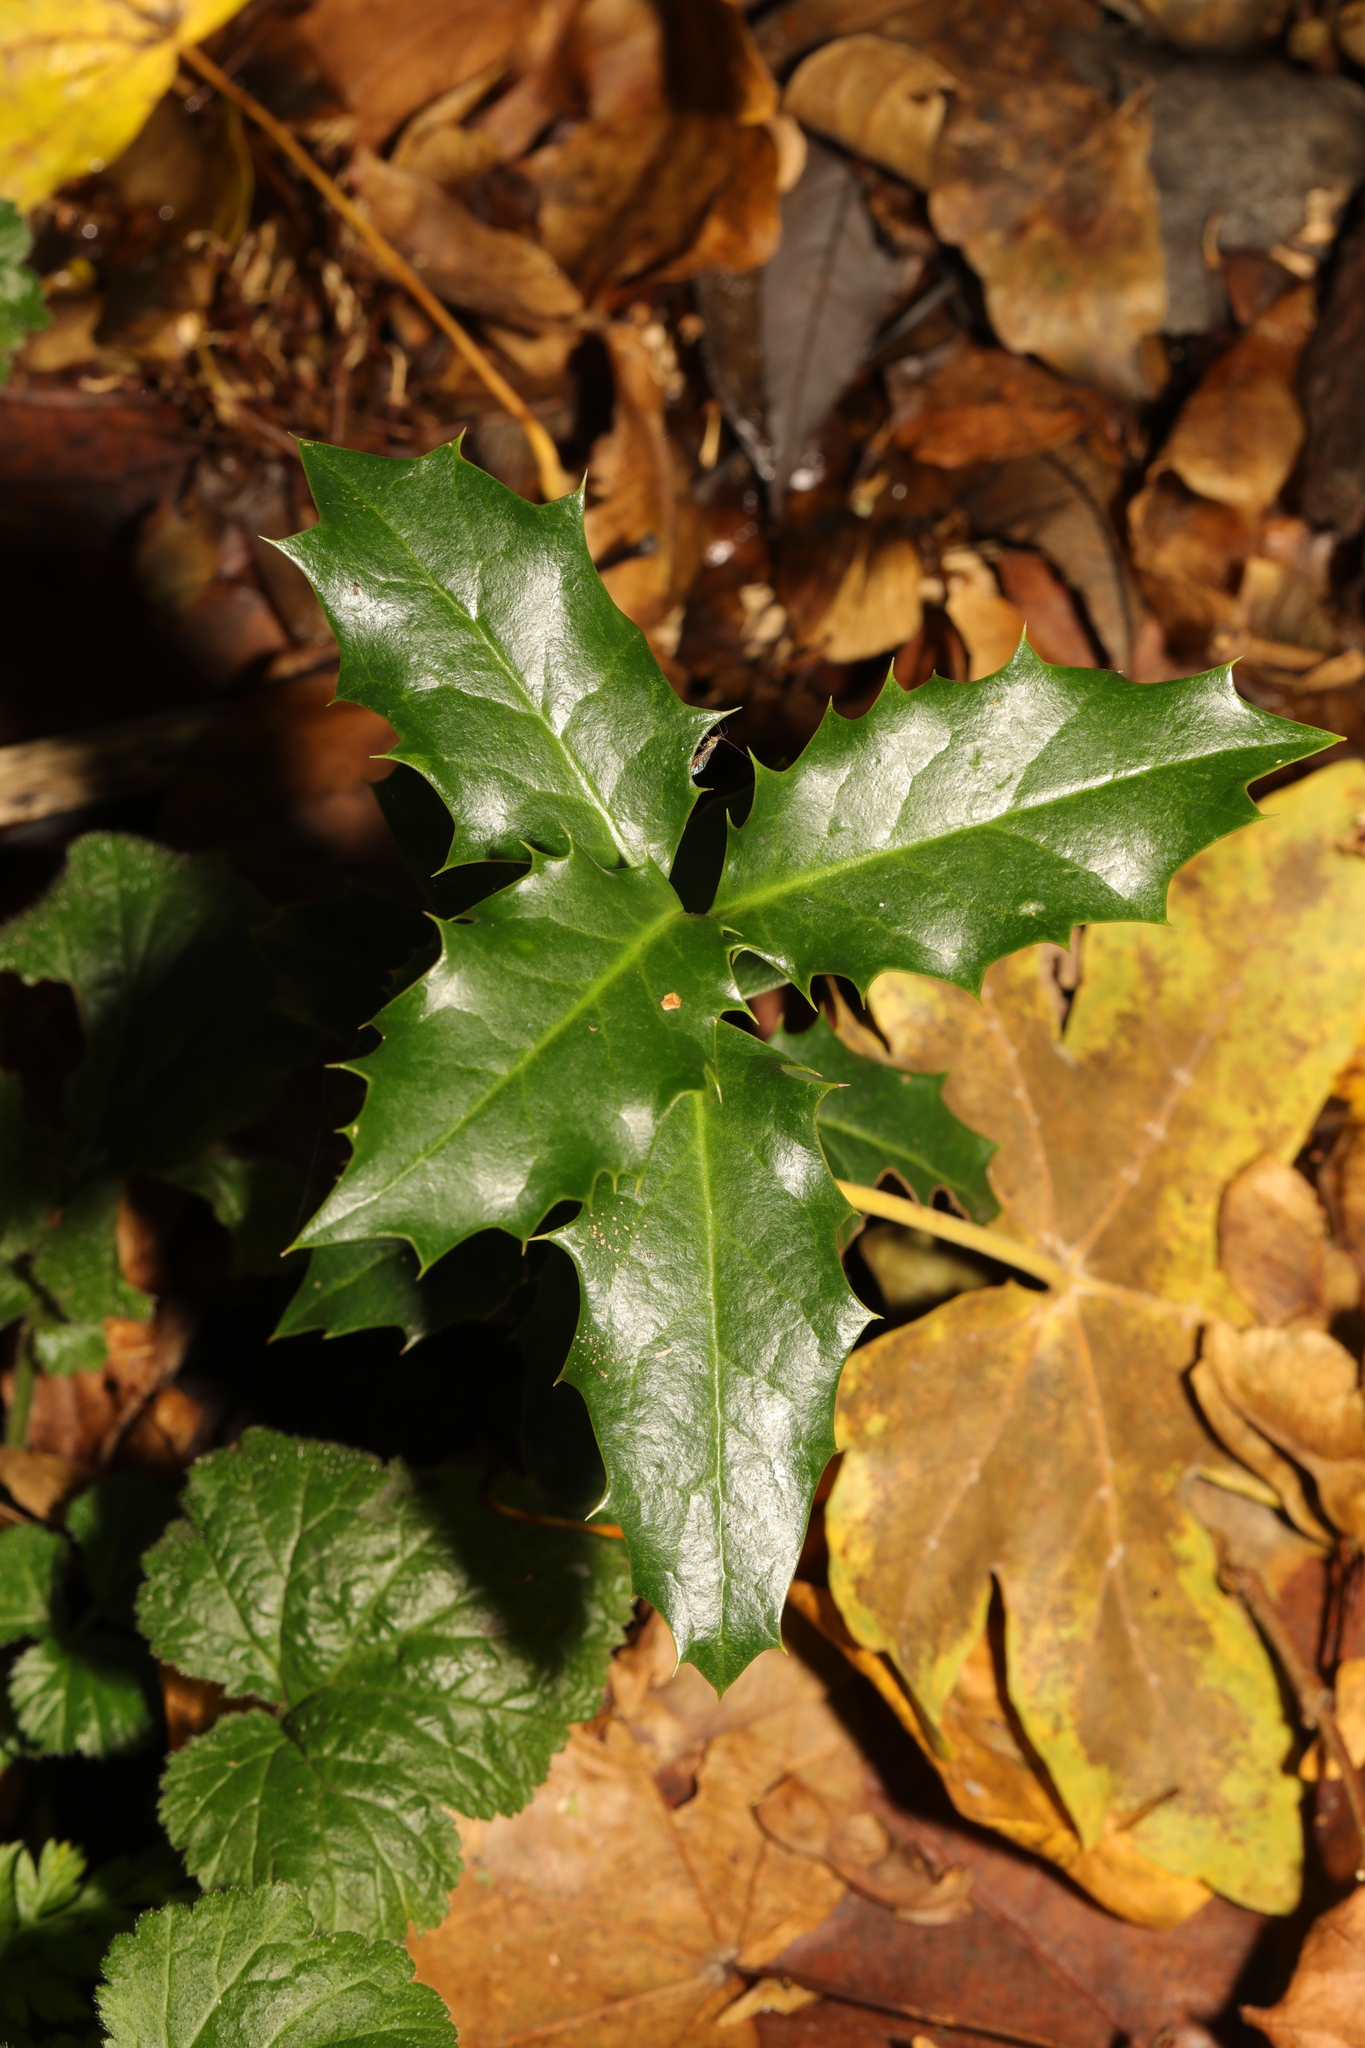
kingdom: Plantae
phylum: Tracheophyta
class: Magnoliopsida
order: Aquifoliales
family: Aquifoliaceae
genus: Ilex
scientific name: Ilex aquifolium
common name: English holly
